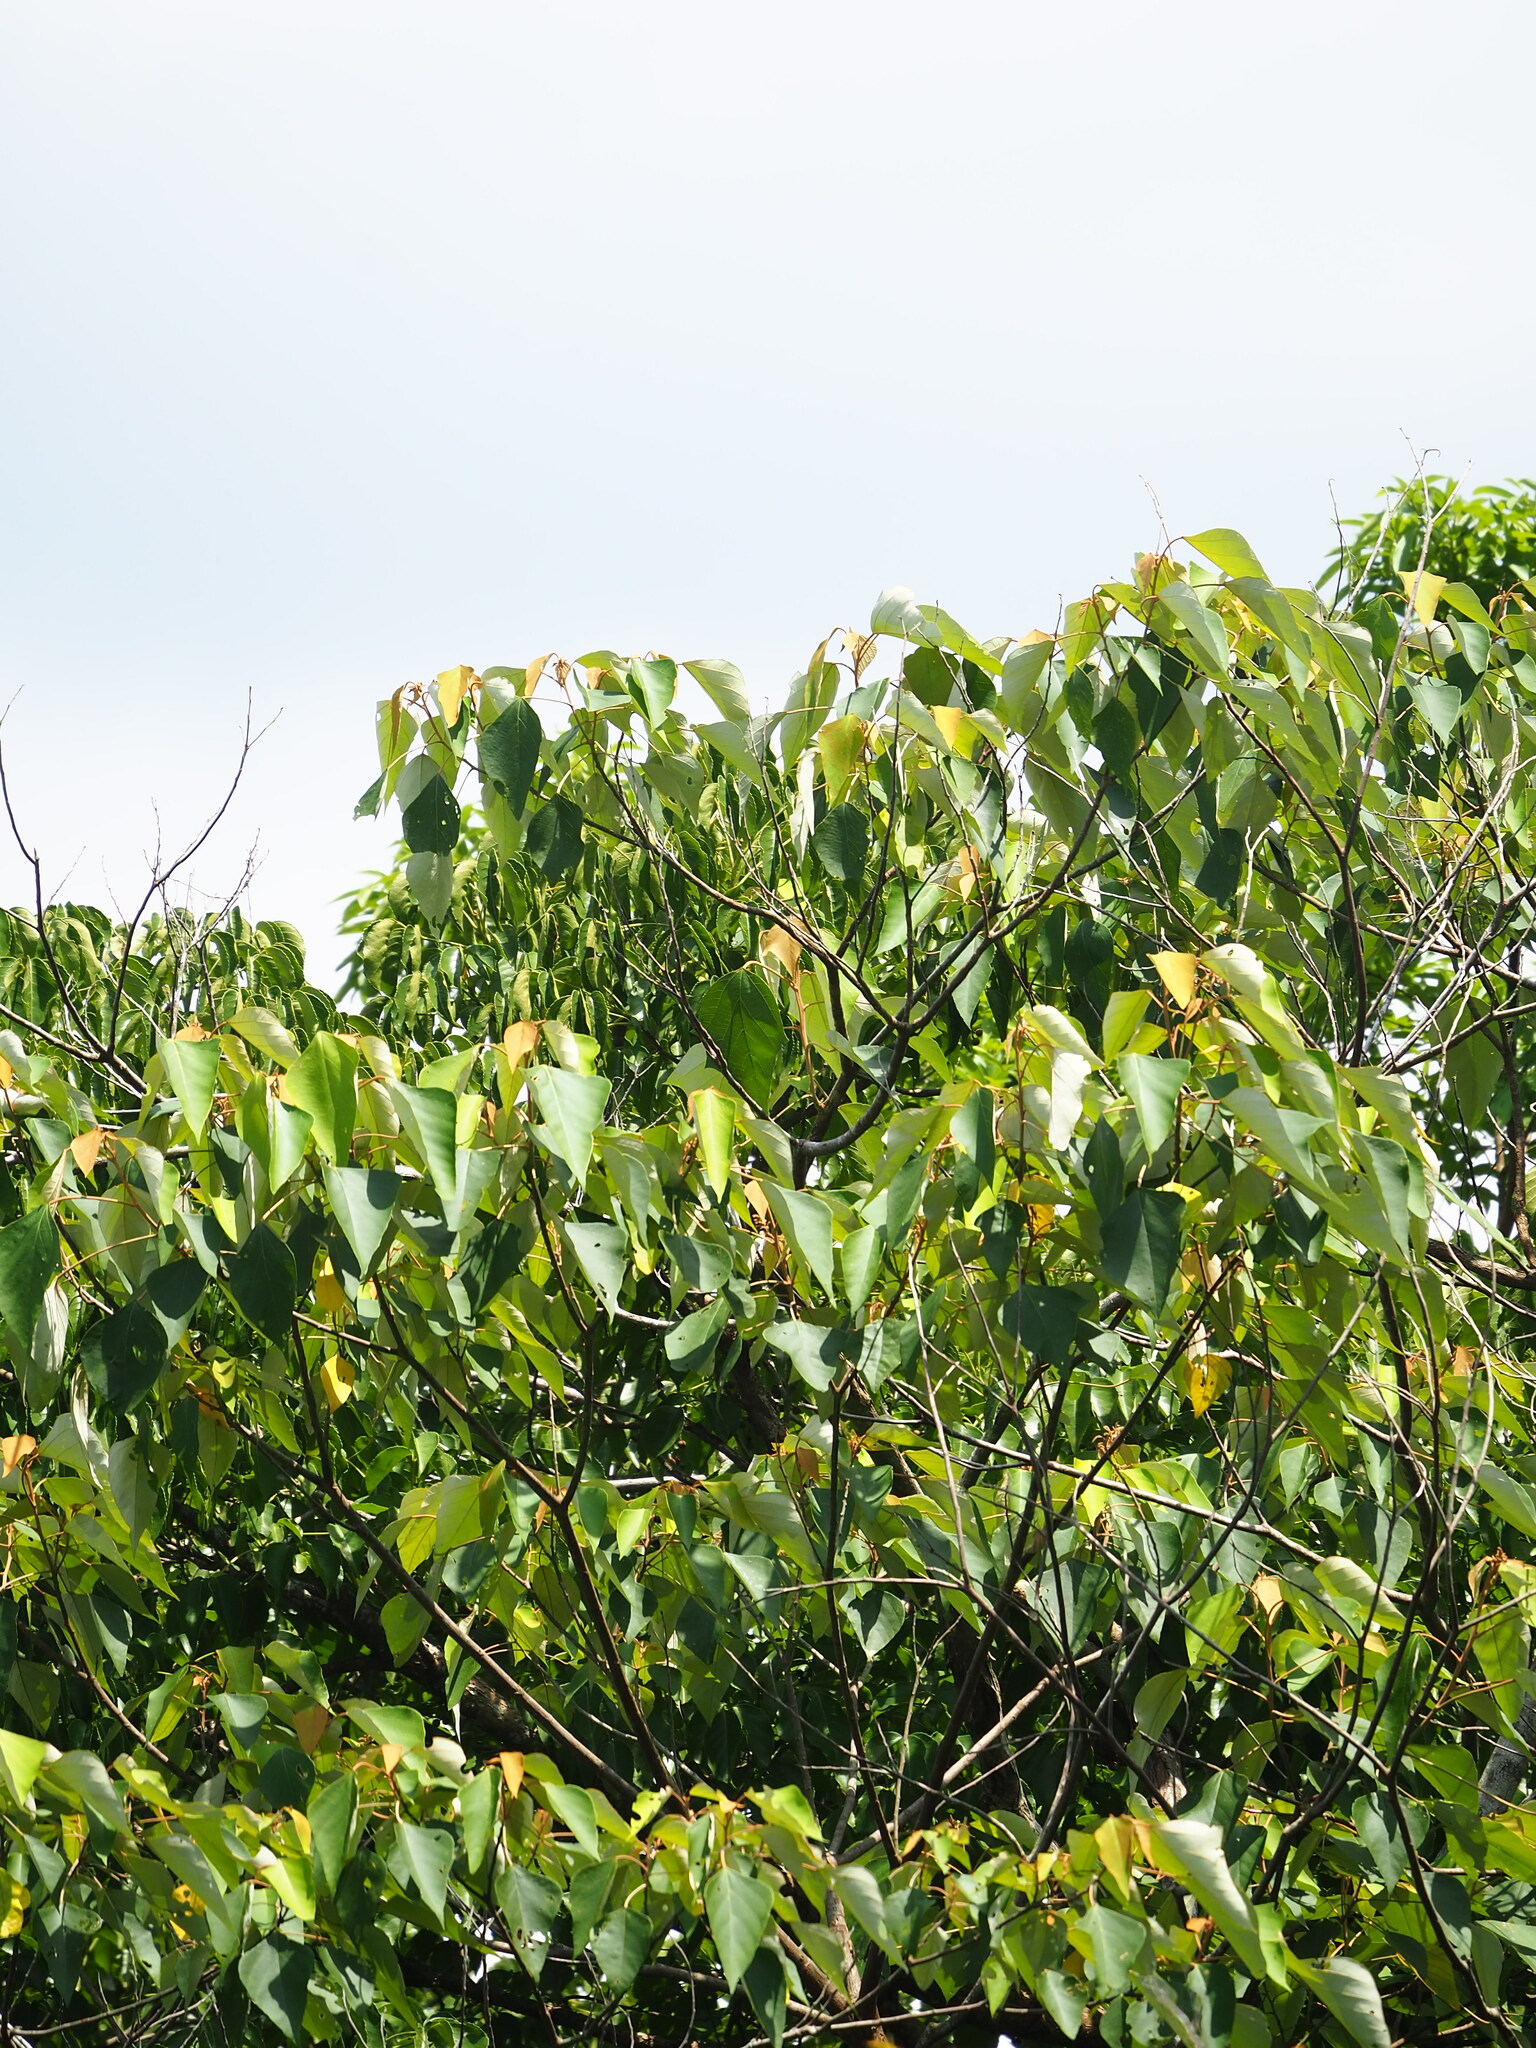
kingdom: Plantae
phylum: Tracheophyta
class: Magnoliopsida
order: Malpighiales
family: Euphorbiaceae
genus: Mallotus
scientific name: Mallotus paniculatus
